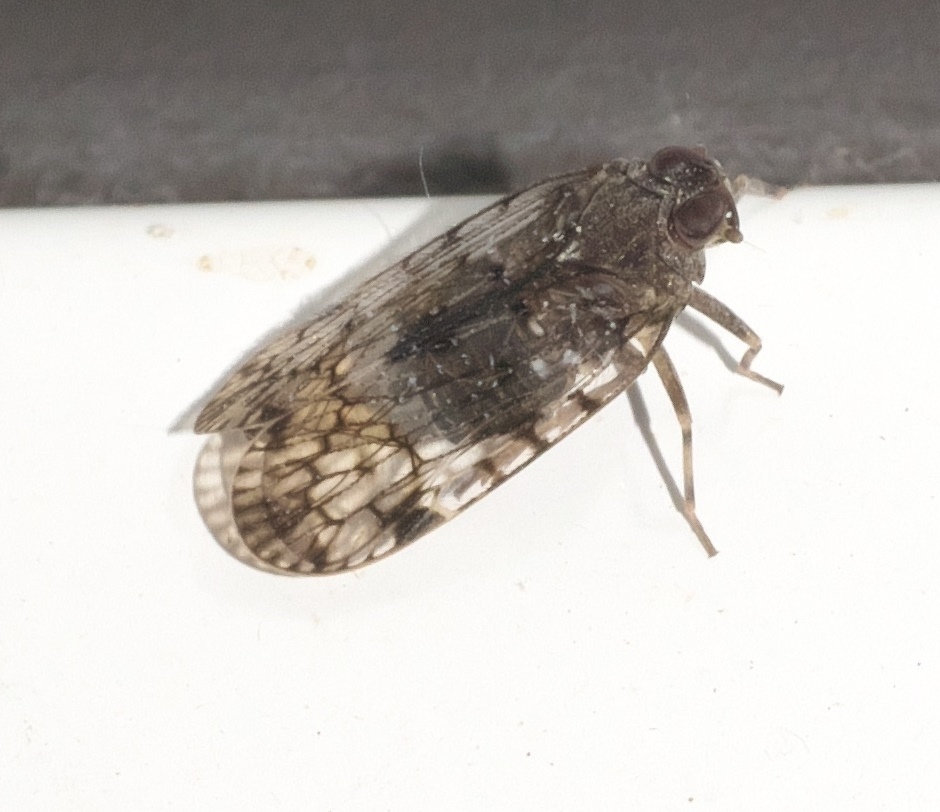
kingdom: Animalia
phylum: Arthropoda
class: Insecta
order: Hemiptera
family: Cixiidae
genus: Melanoliarus
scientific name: Melanoliarus placitus
